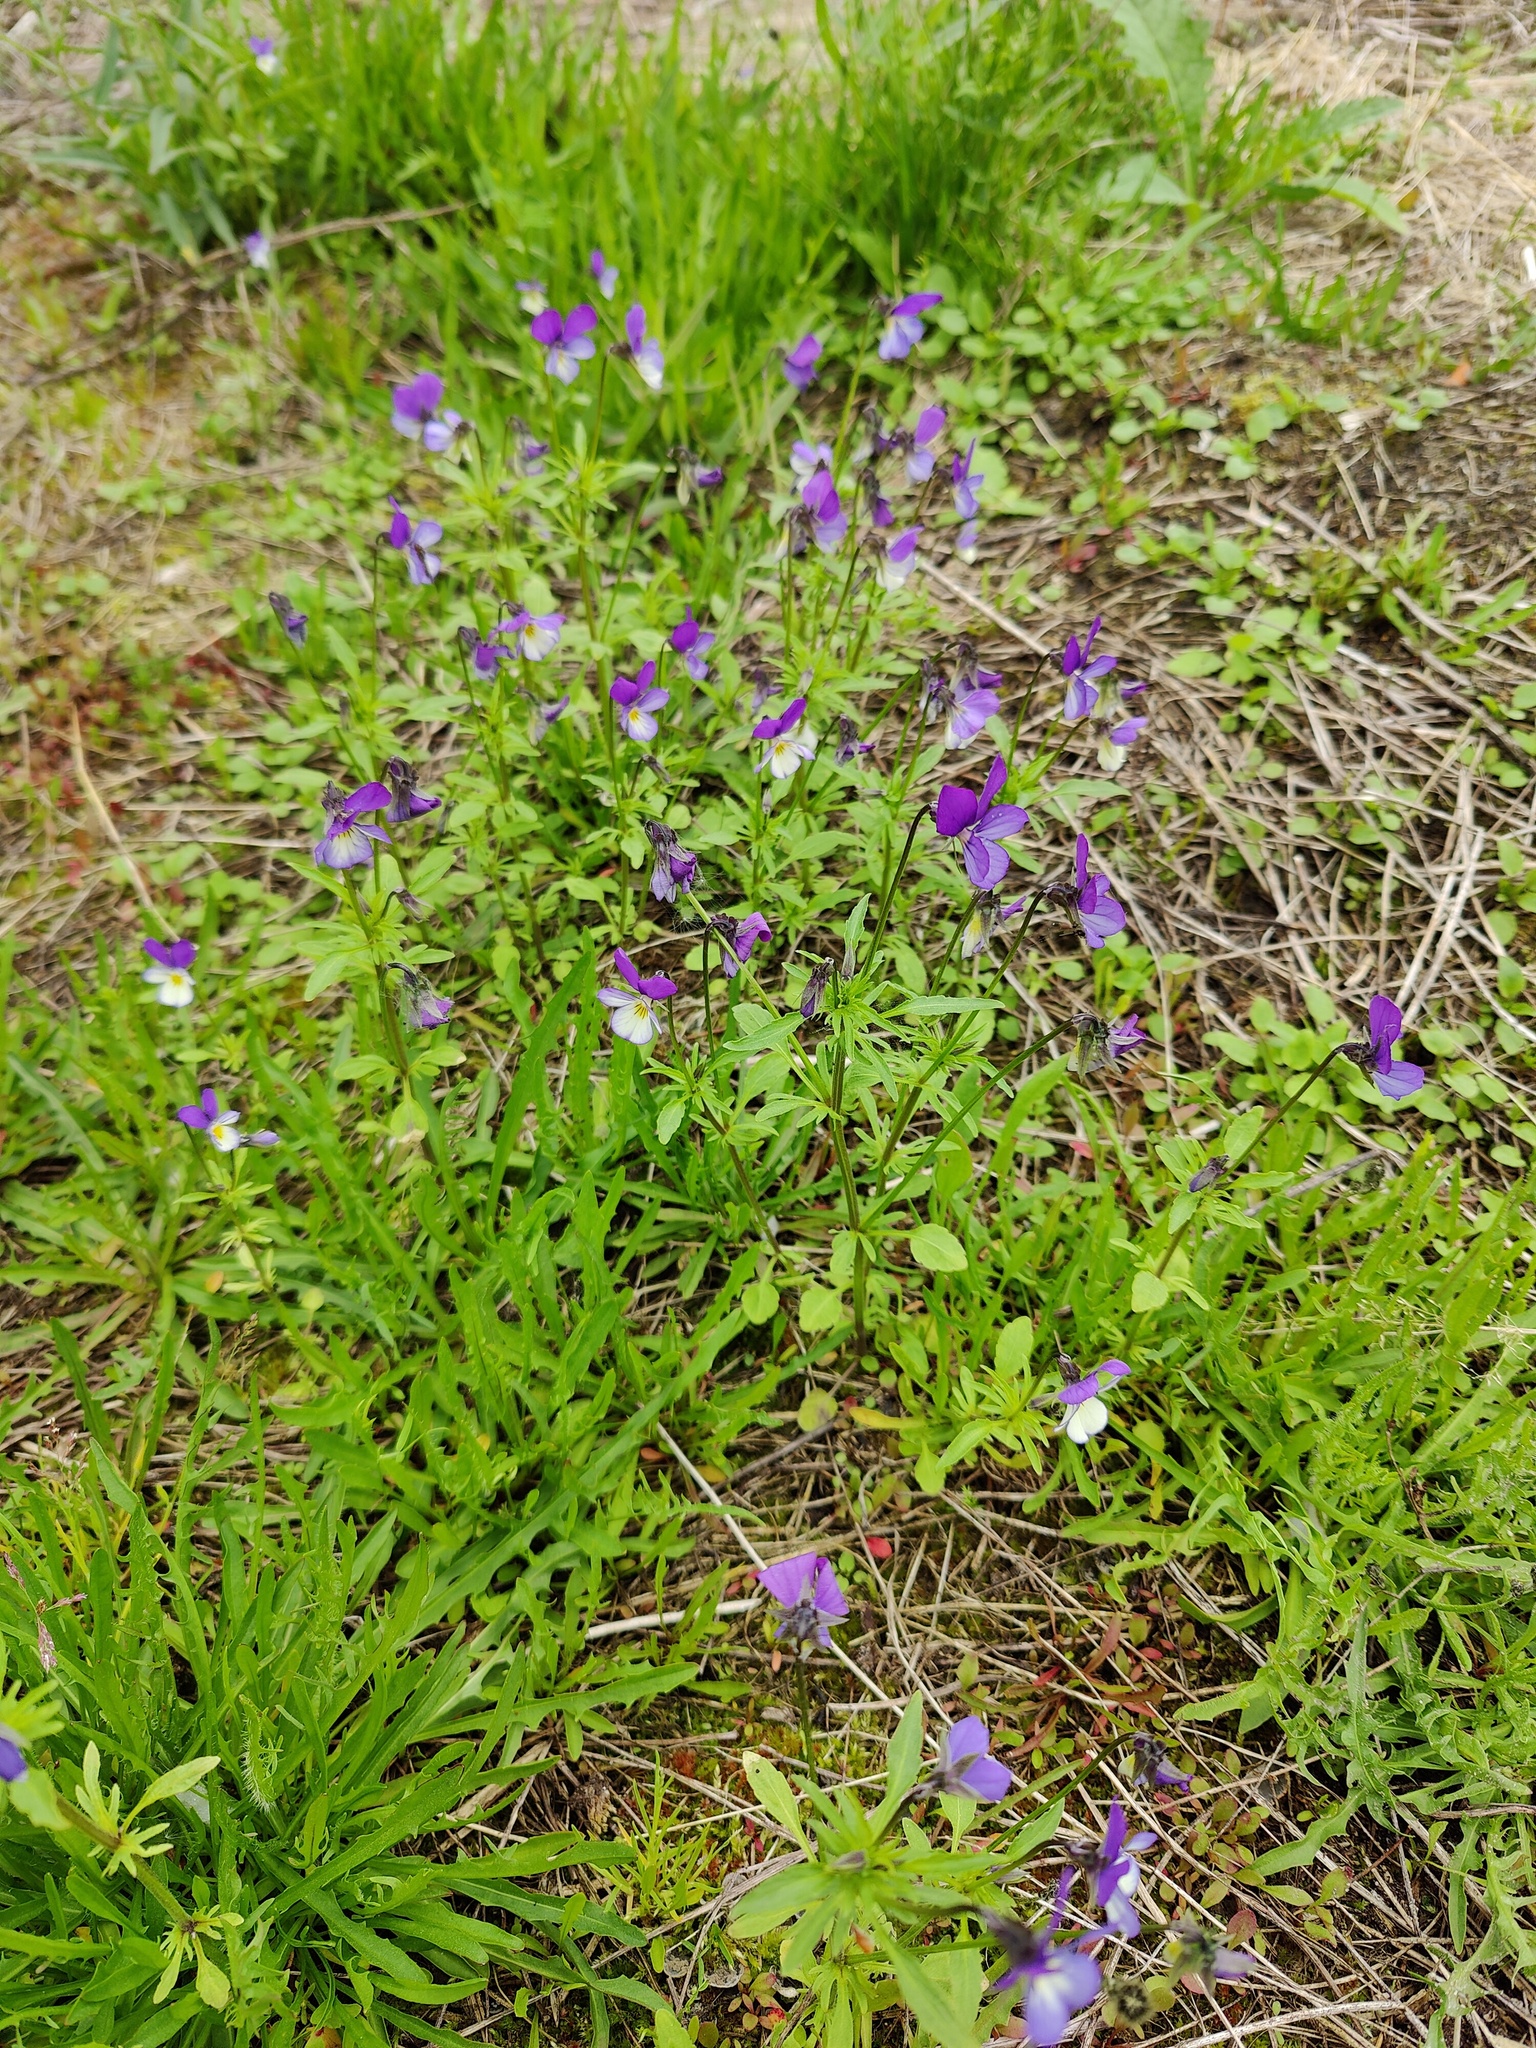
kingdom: Plantae
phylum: Tracheophyta
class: Magnoliopsida
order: Malpighiales
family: Violaceae
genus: Viola
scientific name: Viola tricolor
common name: Pansy
